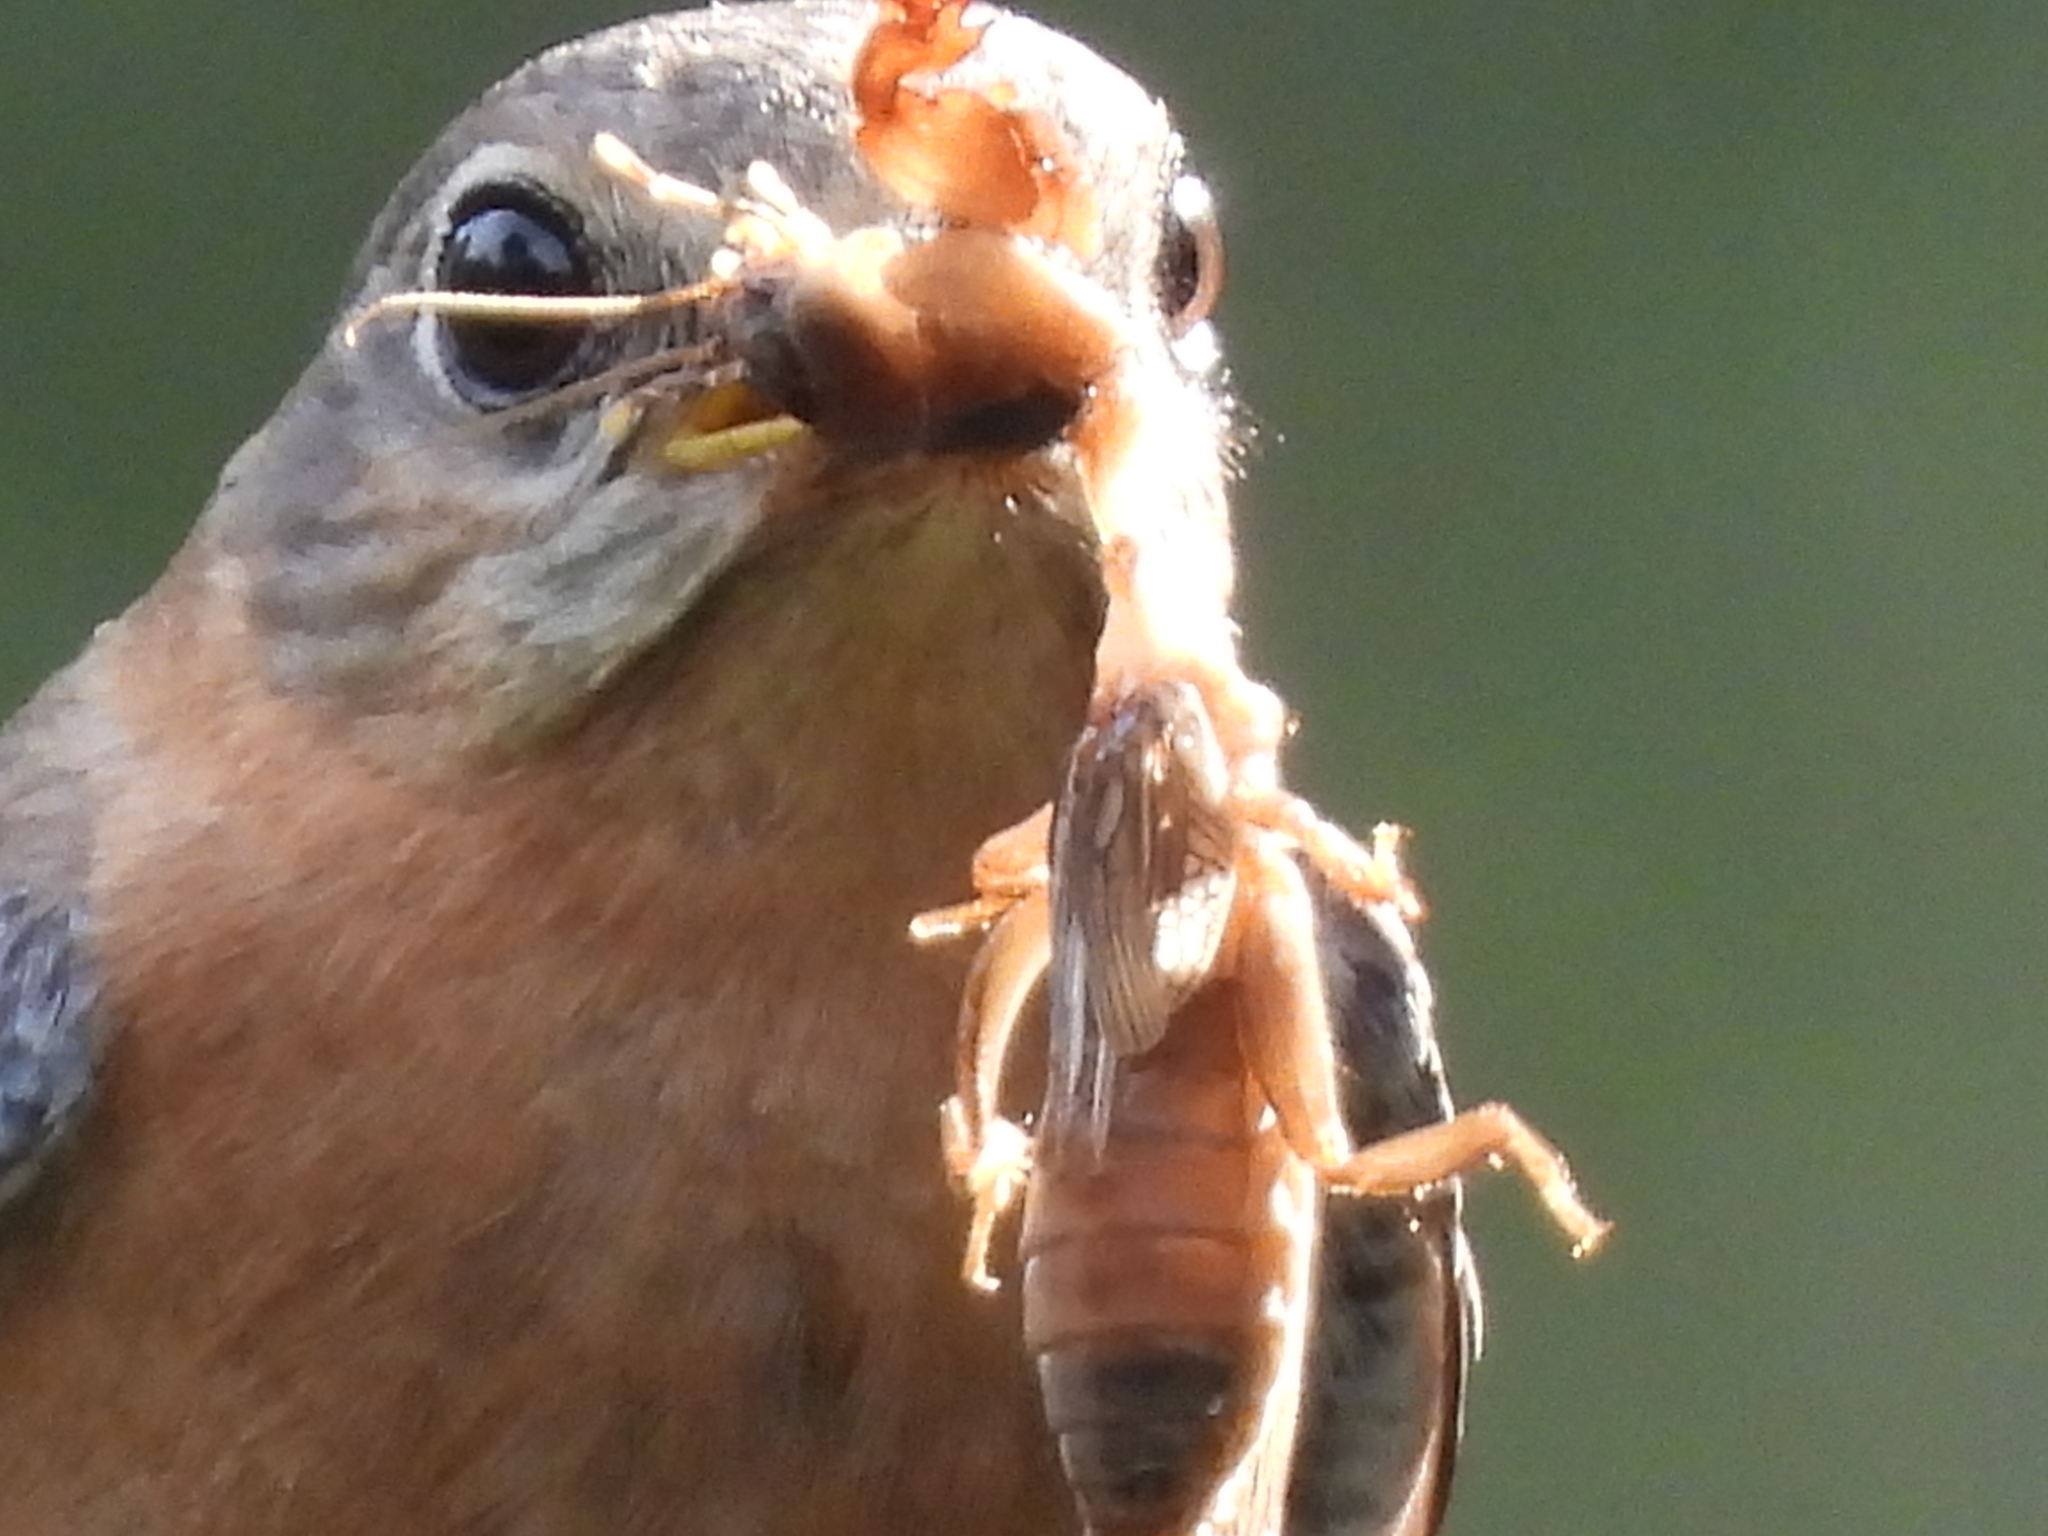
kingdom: Animalia
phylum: Chordata
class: Aves
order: Passeriformes
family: Turdidae
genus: Sialia
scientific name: Sialia sialis
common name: Eastern bluebird
